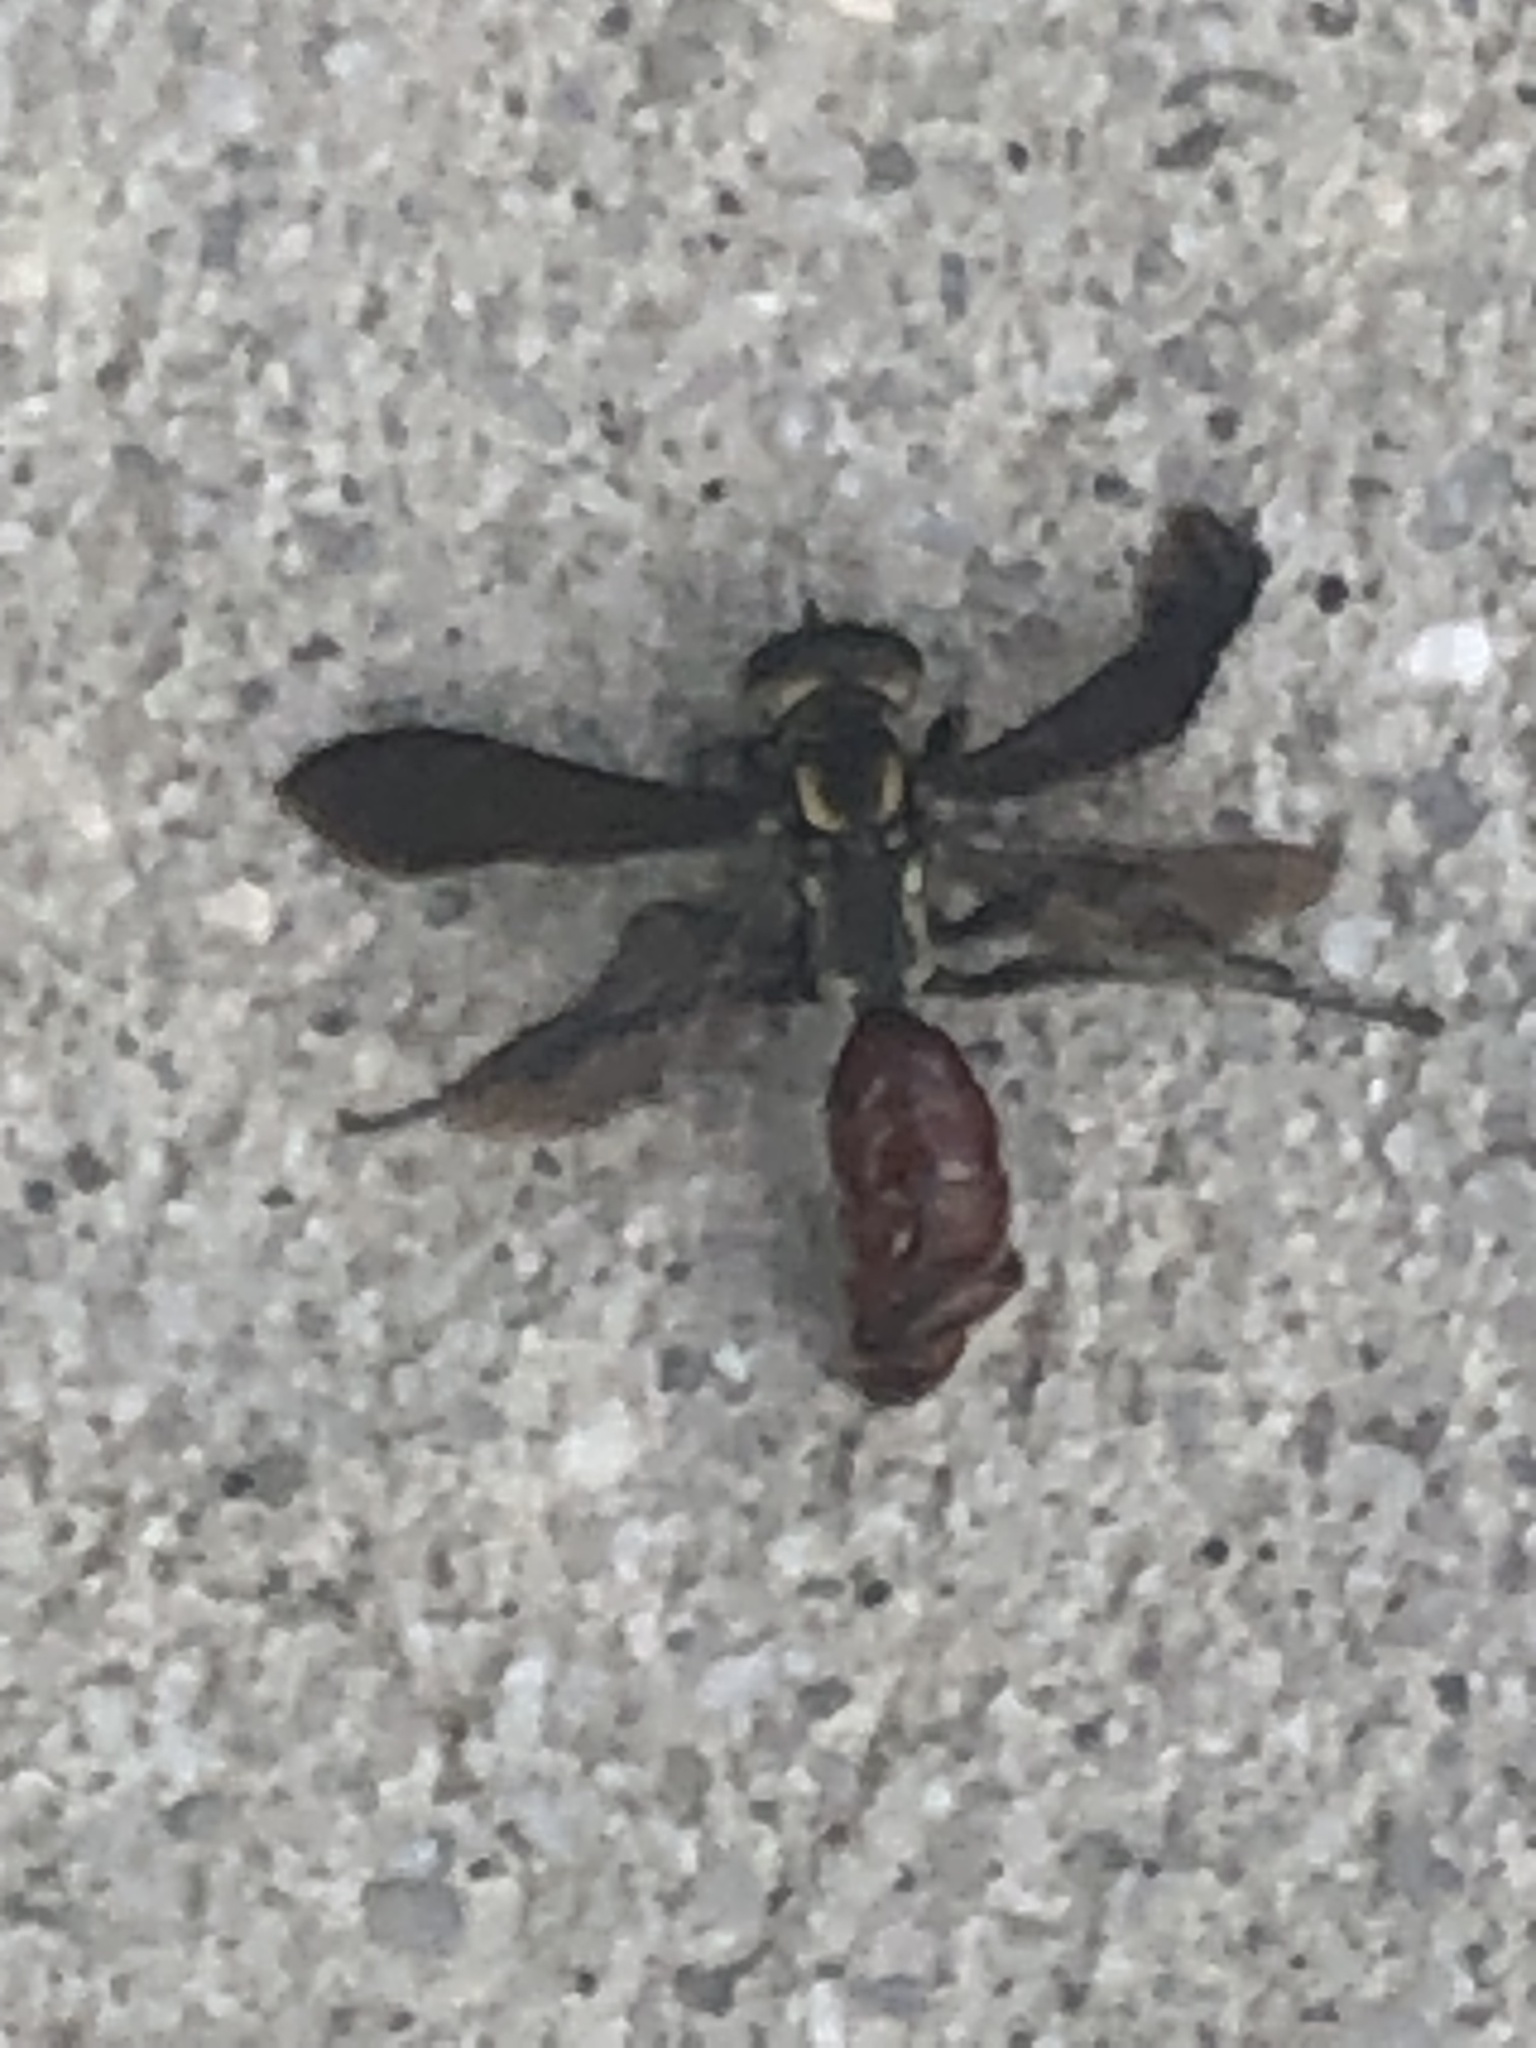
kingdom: Animalia
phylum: Arthropoda
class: Insecta
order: Hymenoptera
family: Crabronidae
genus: Larra
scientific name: Larra bicolor
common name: Wasp
